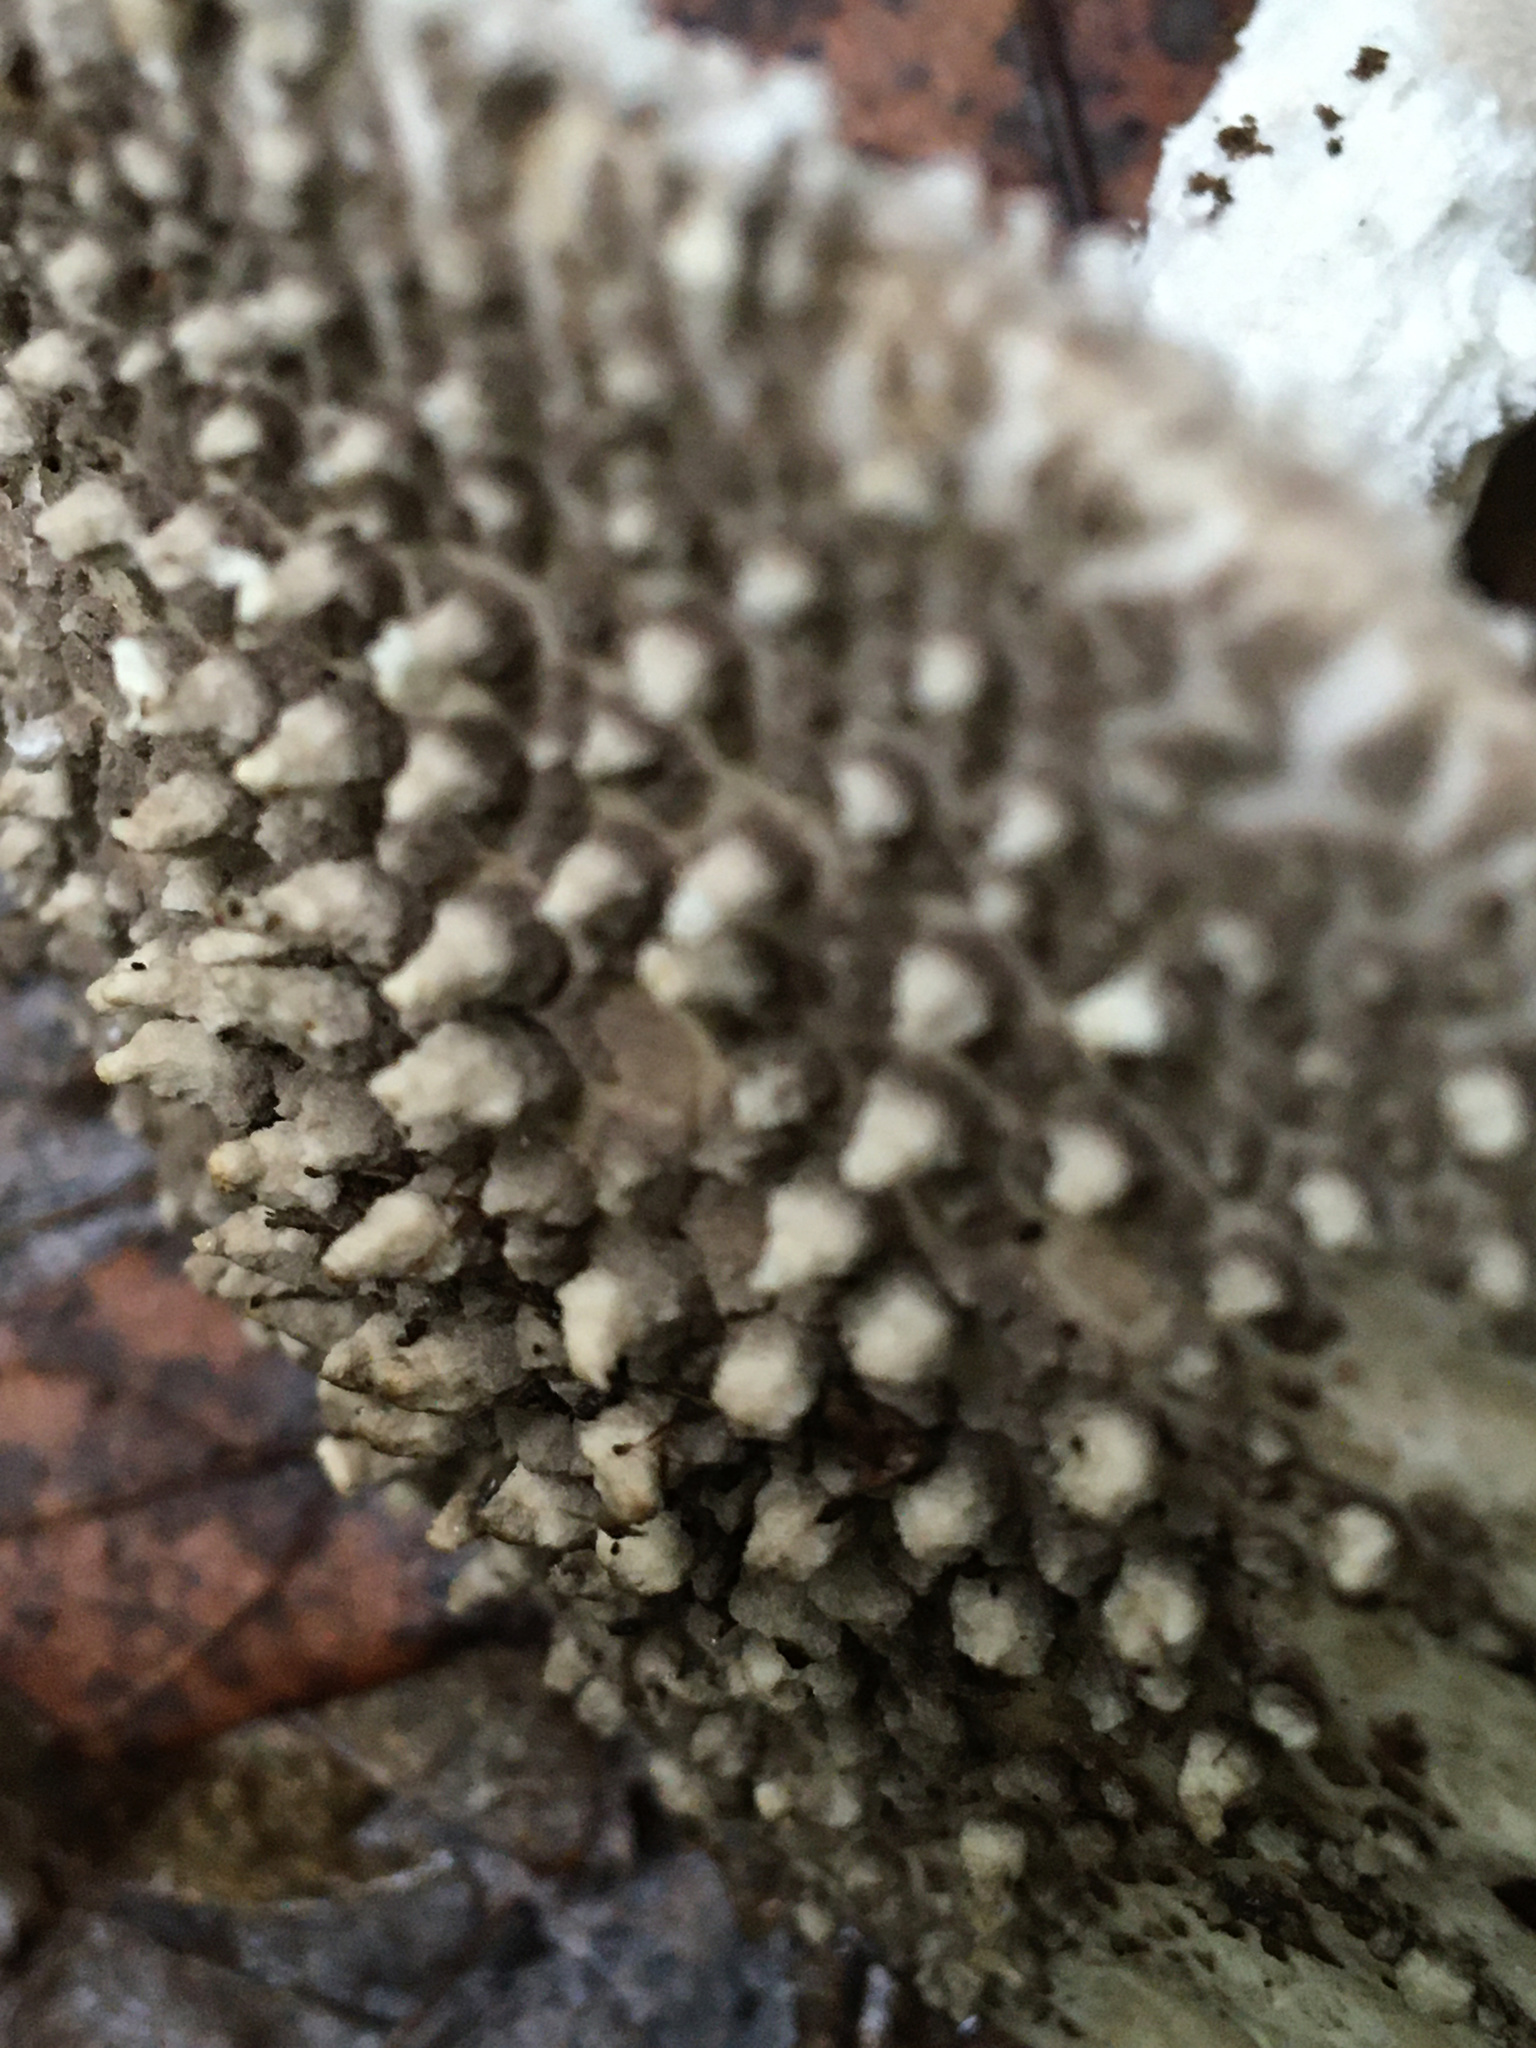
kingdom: Fungi
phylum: Basidiomycota
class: Agaricomycetes
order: Agaricales
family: Amanitaceae
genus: Amanita
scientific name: Amanita onusta
